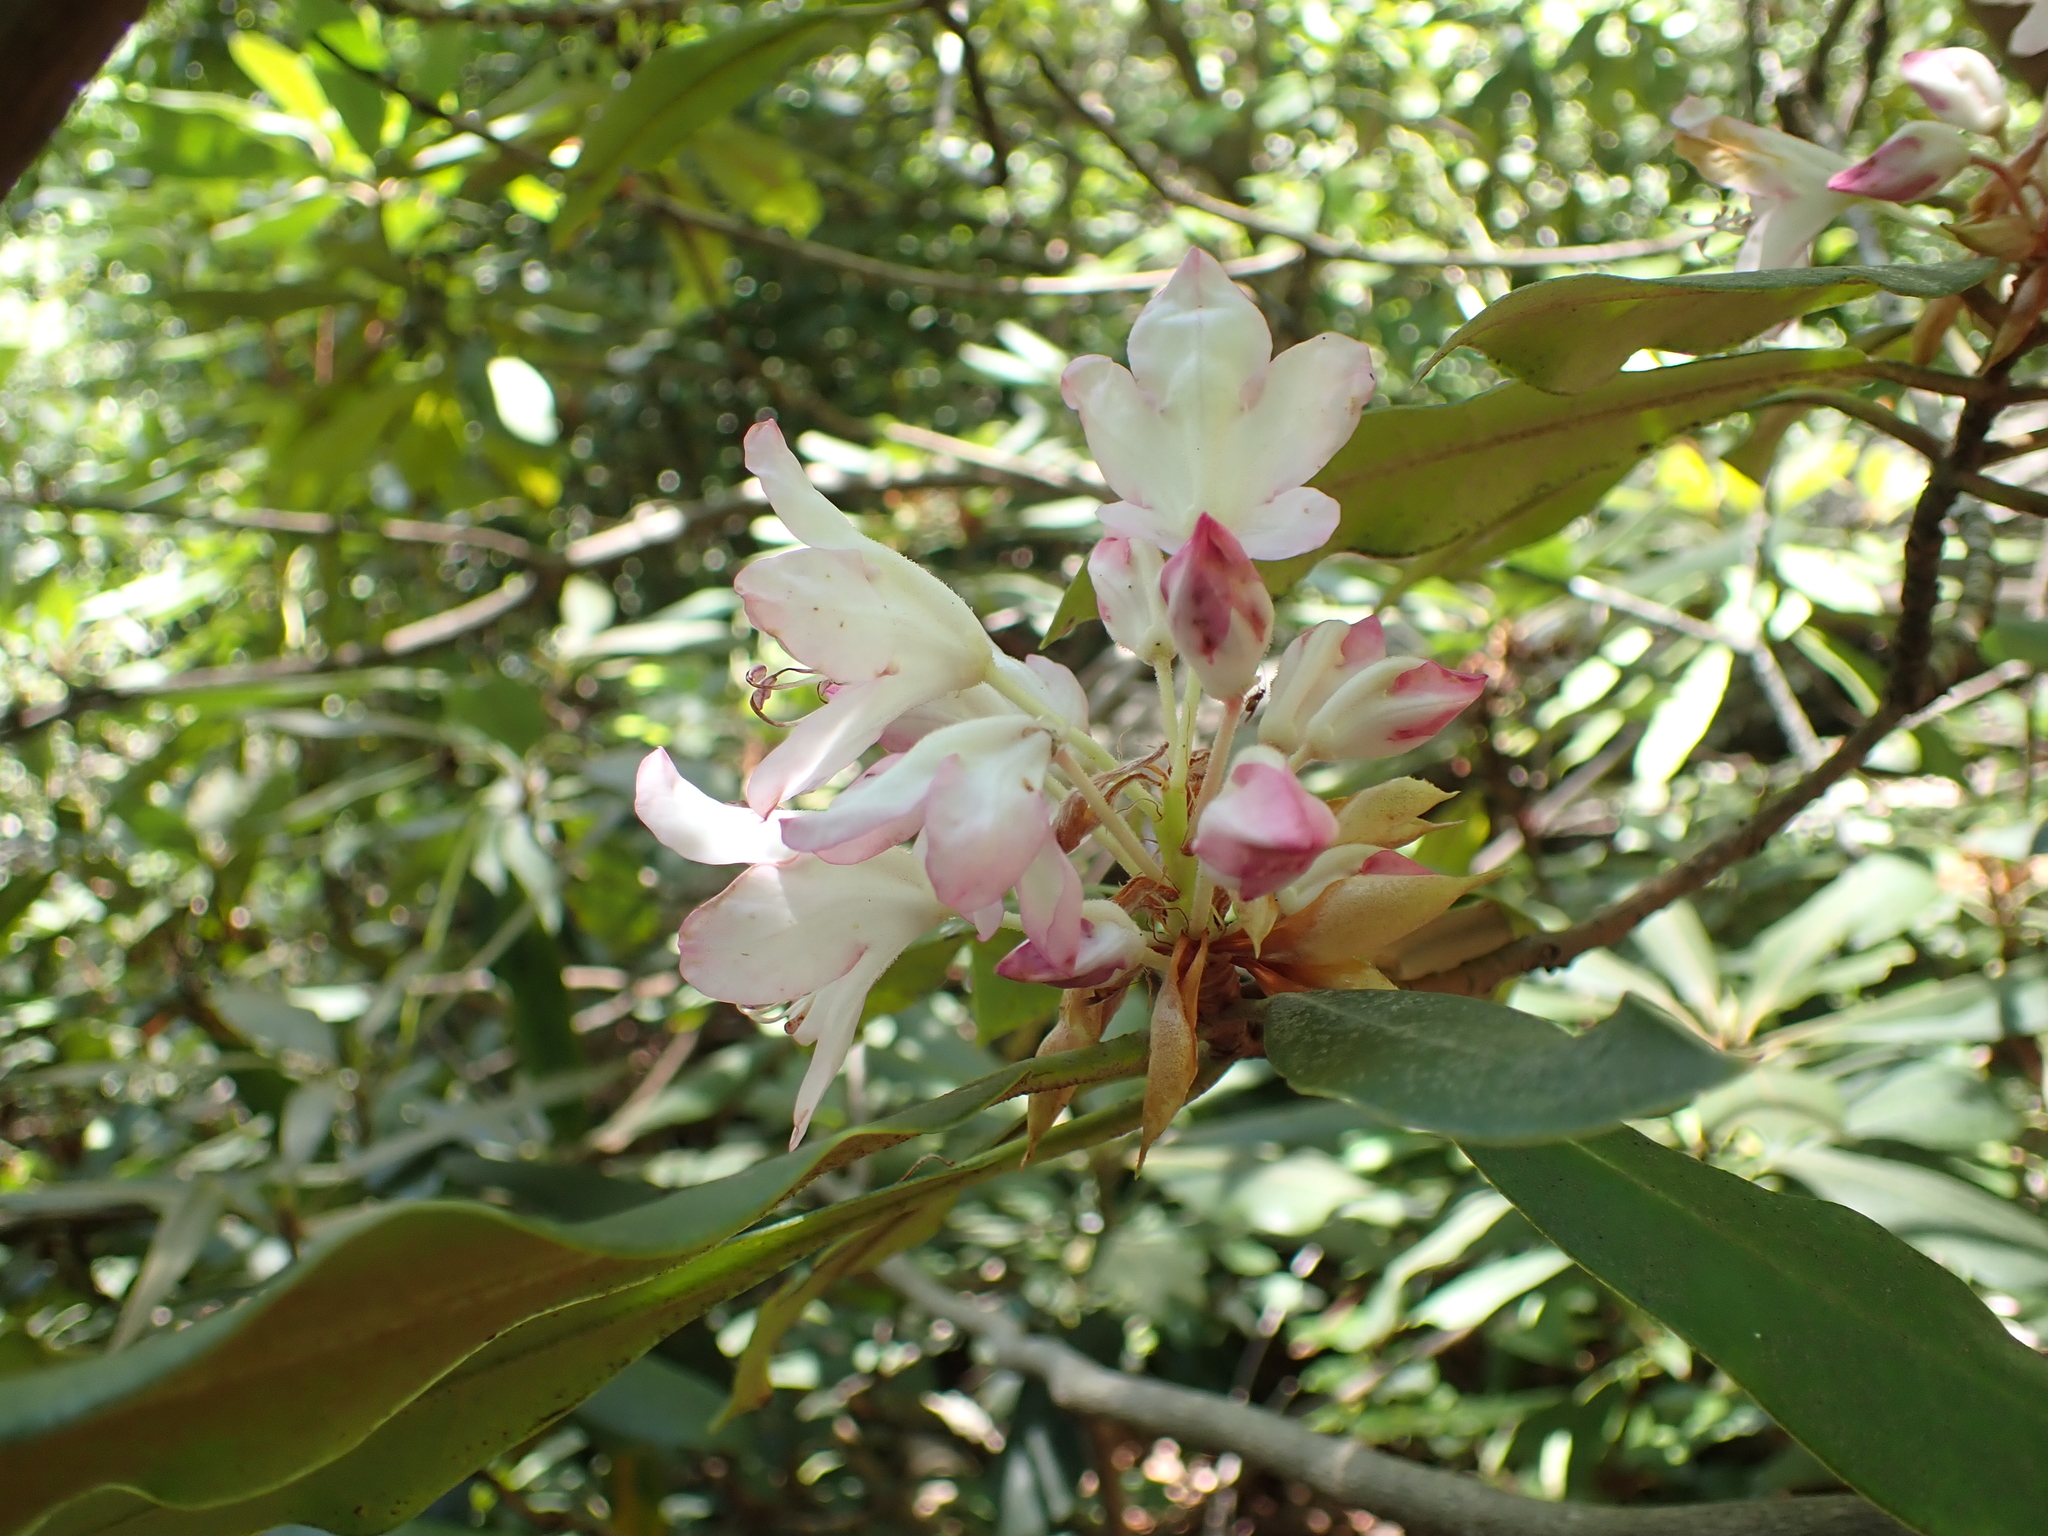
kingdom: Plantae
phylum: Tracheophyta
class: Magnoliopsida
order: Ericales
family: Ericaceae
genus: Rhododendron
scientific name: Rhododendron maximum
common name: Great rhododendron
